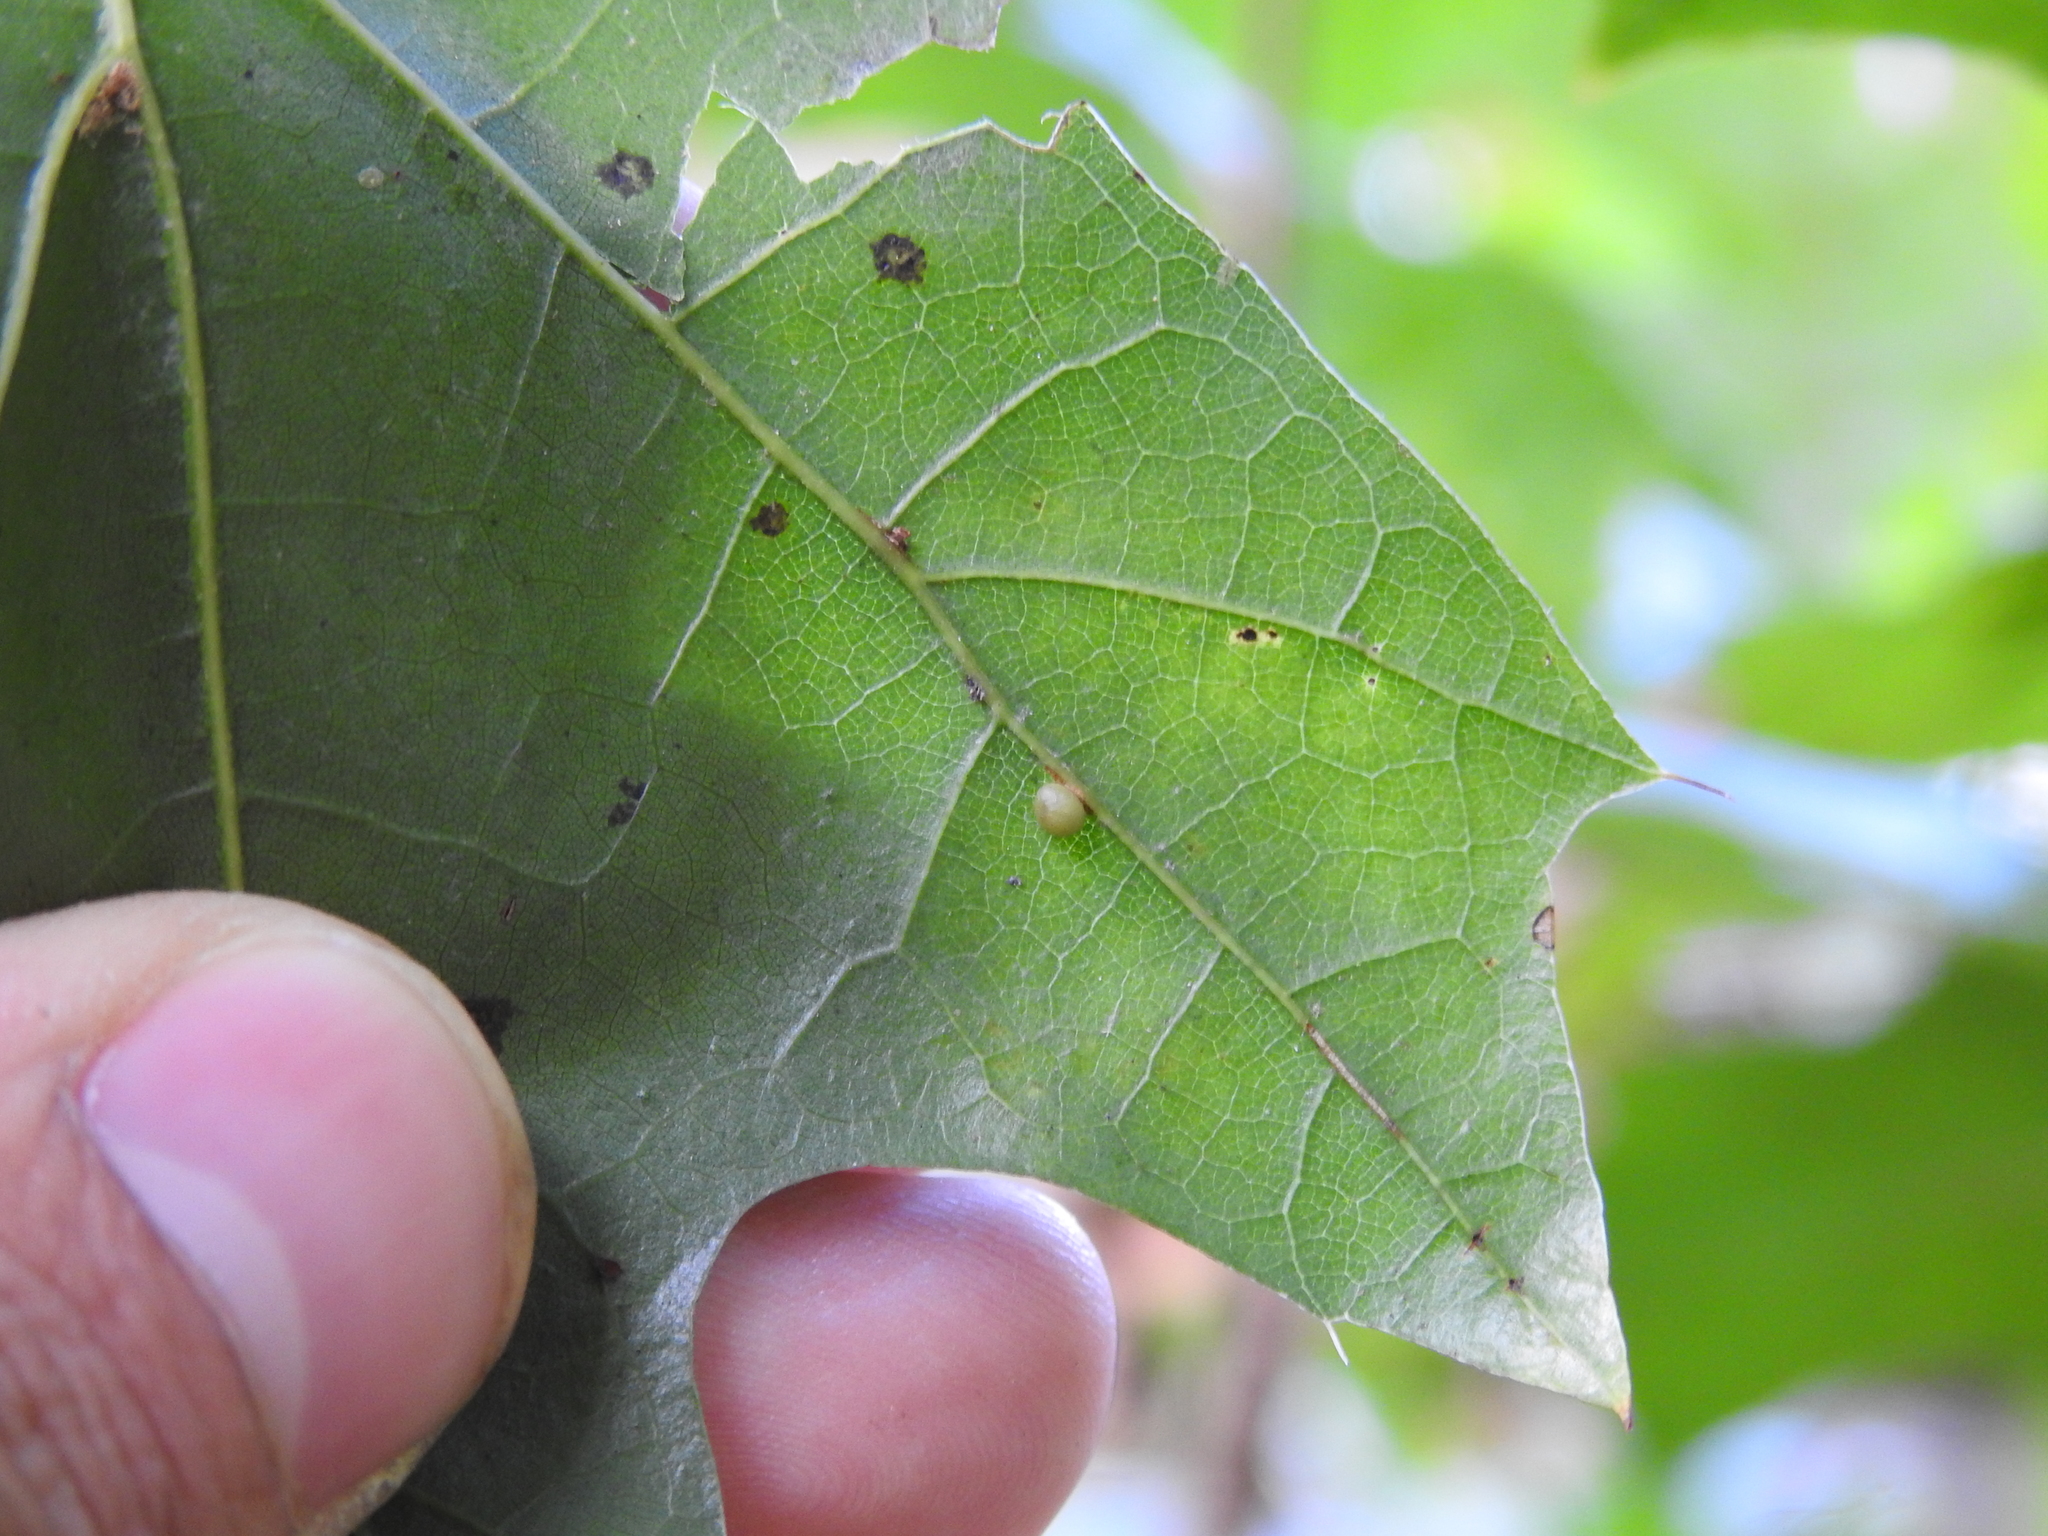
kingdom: Animalia
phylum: Arthropoda
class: Insecta
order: Hymenoptera
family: Cynipidae
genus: Zopheroteras
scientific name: Zopheroteras
